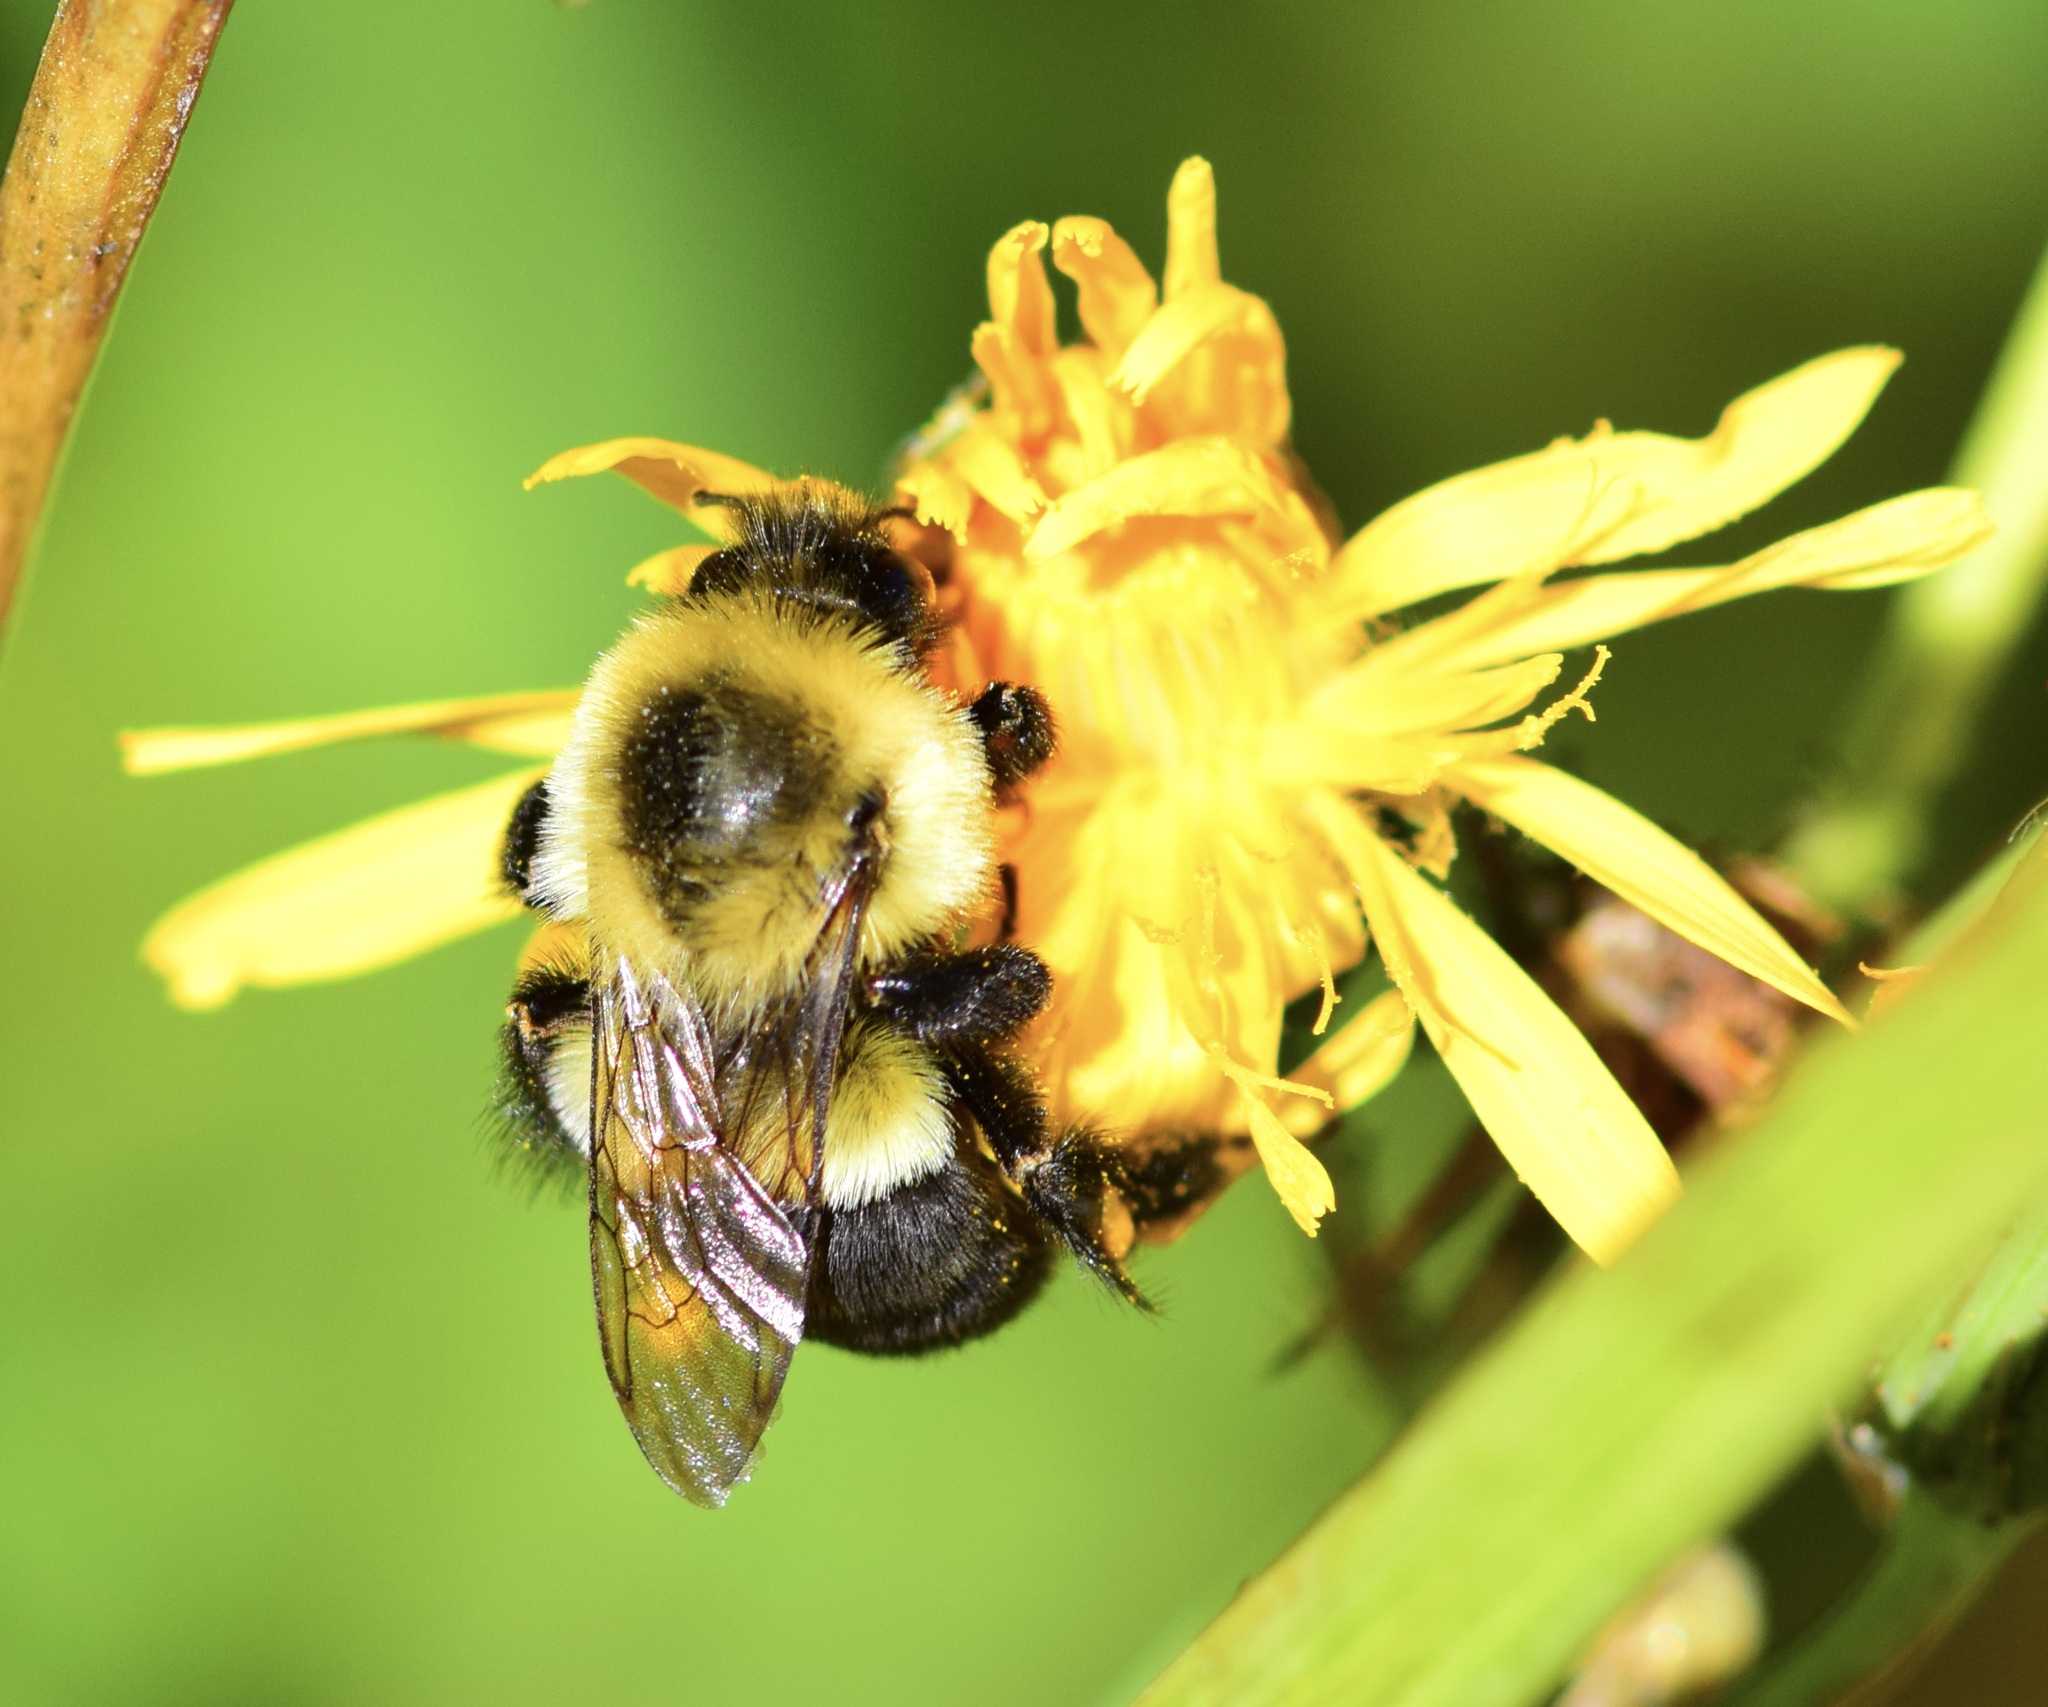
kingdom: Animalia
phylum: Arthropoda
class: Insecta
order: Hymenoptera
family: Apidae
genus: Bombus
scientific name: Bombus impatiens
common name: Common eastern bumble bee
